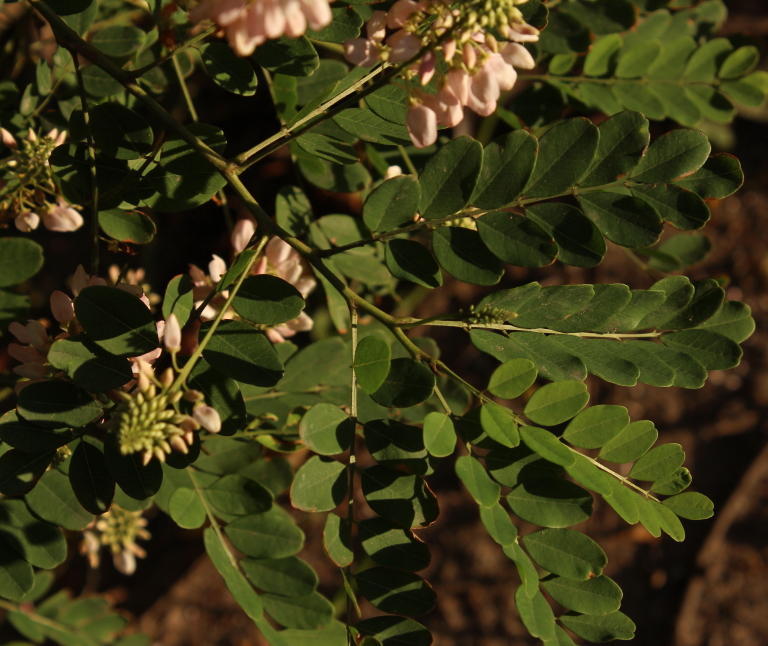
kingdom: Plantae
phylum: Tracheophyta
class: Magnoliopsida
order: Fabales
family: Fabaceae
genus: Indigofera
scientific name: Indigofera jucunda
